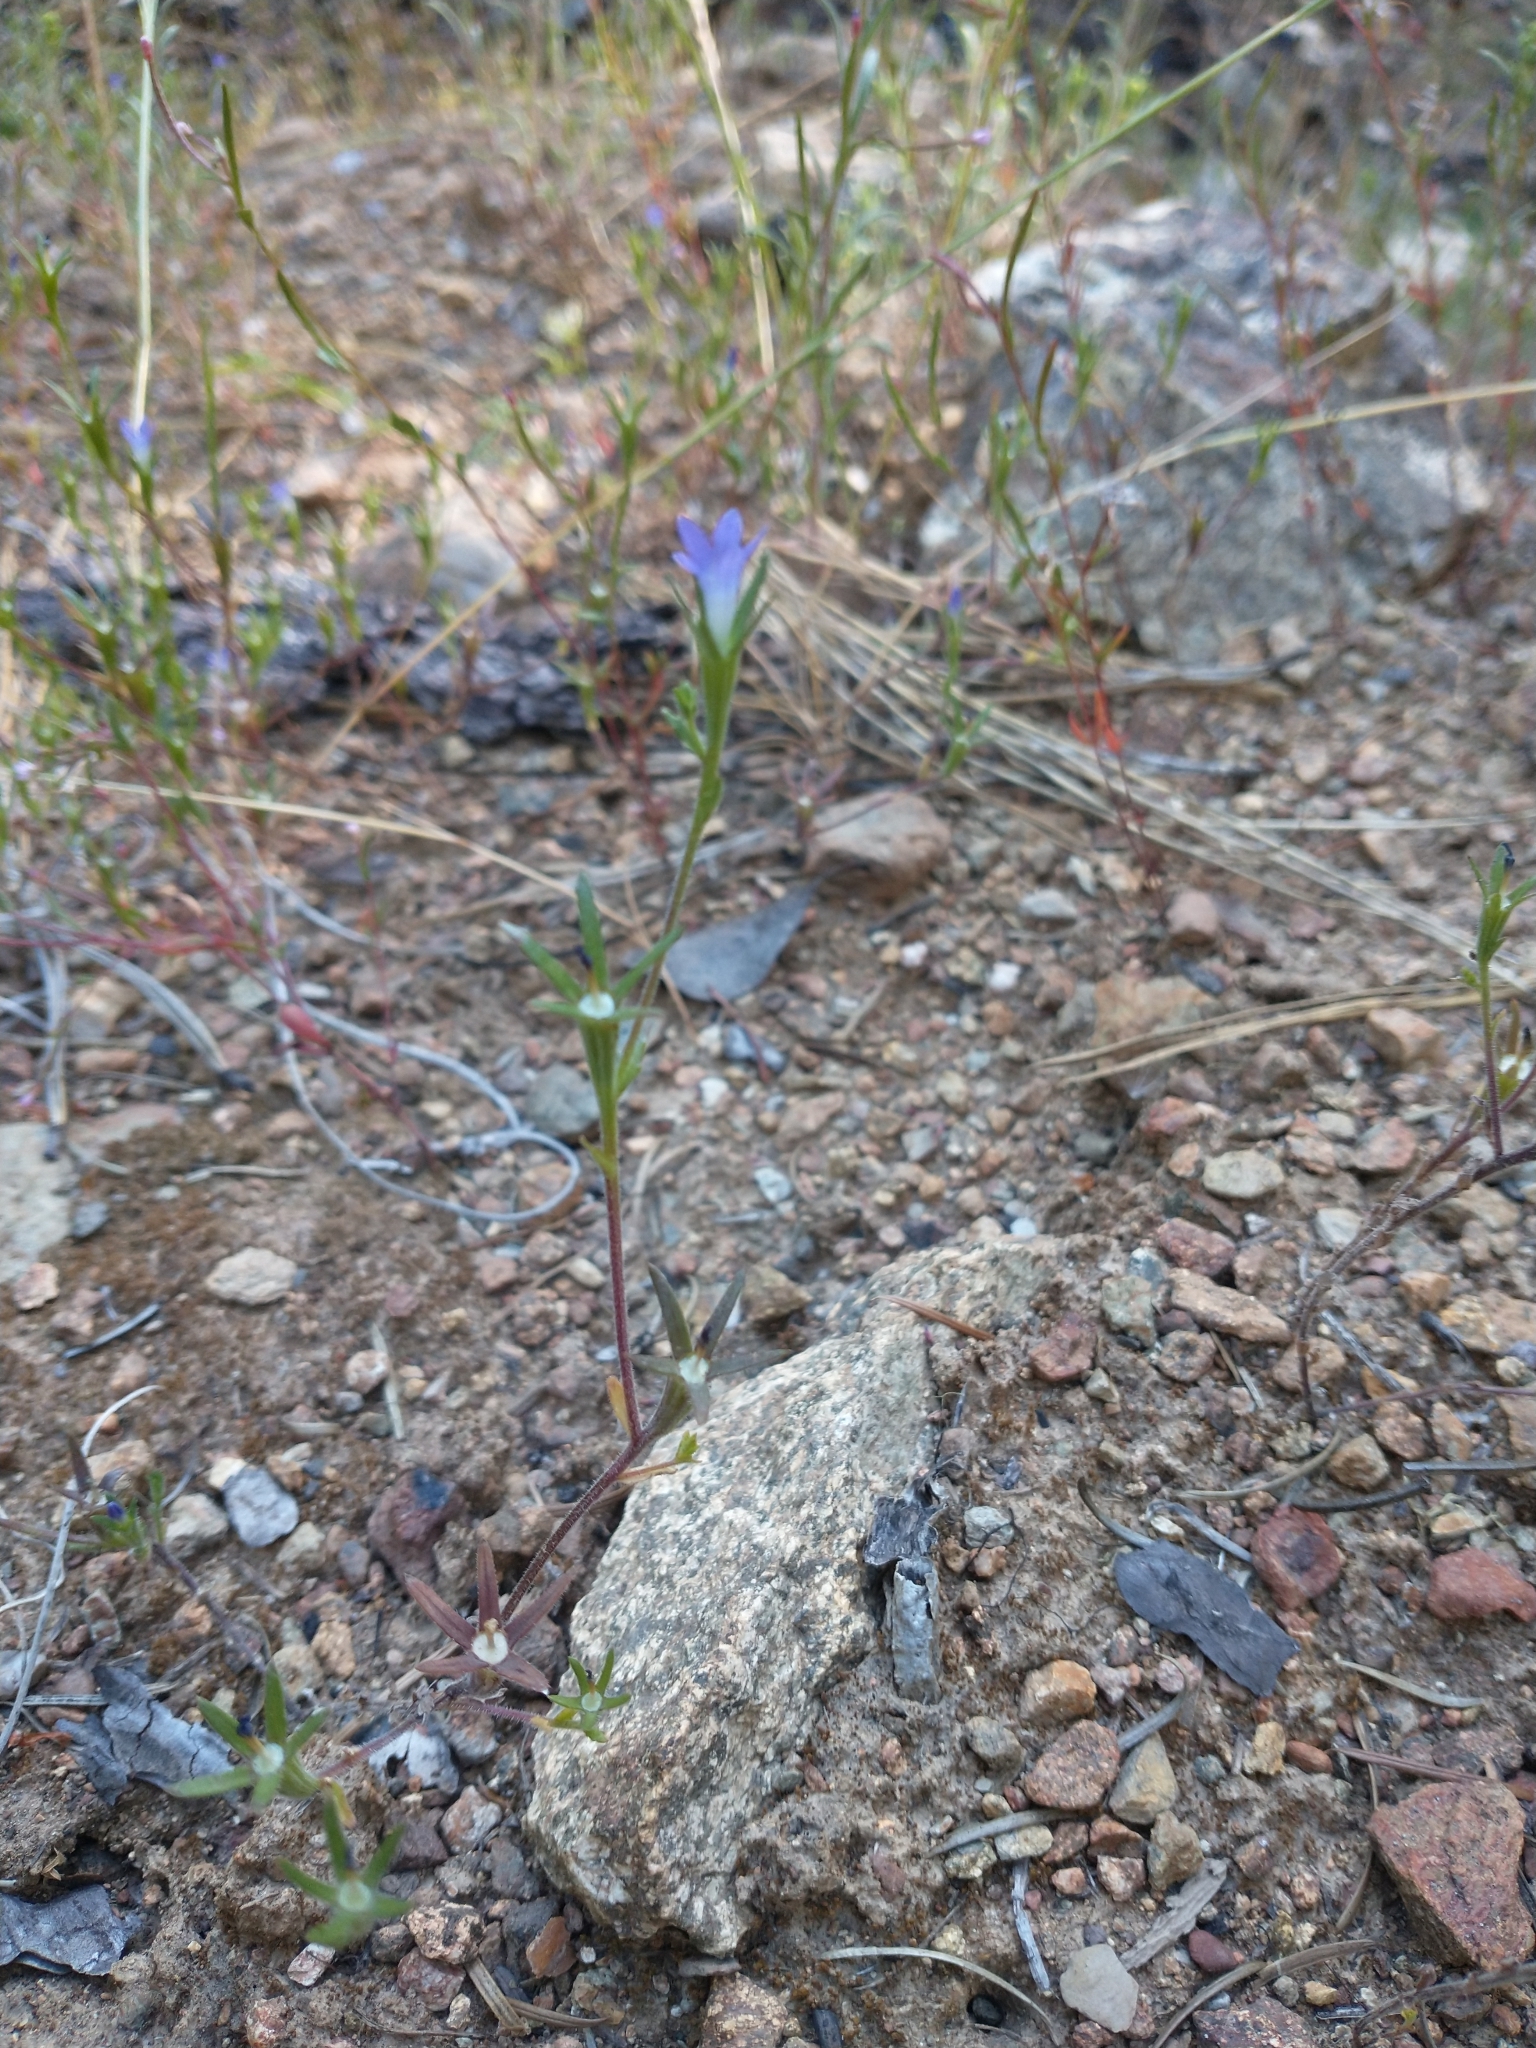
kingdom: Plantae
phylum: Tracheophyta
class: Magnoliopsida
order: Asterales
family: Campanulaceae
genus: Githopsis
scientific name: Githopsis specularioides
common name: Common bluecup
